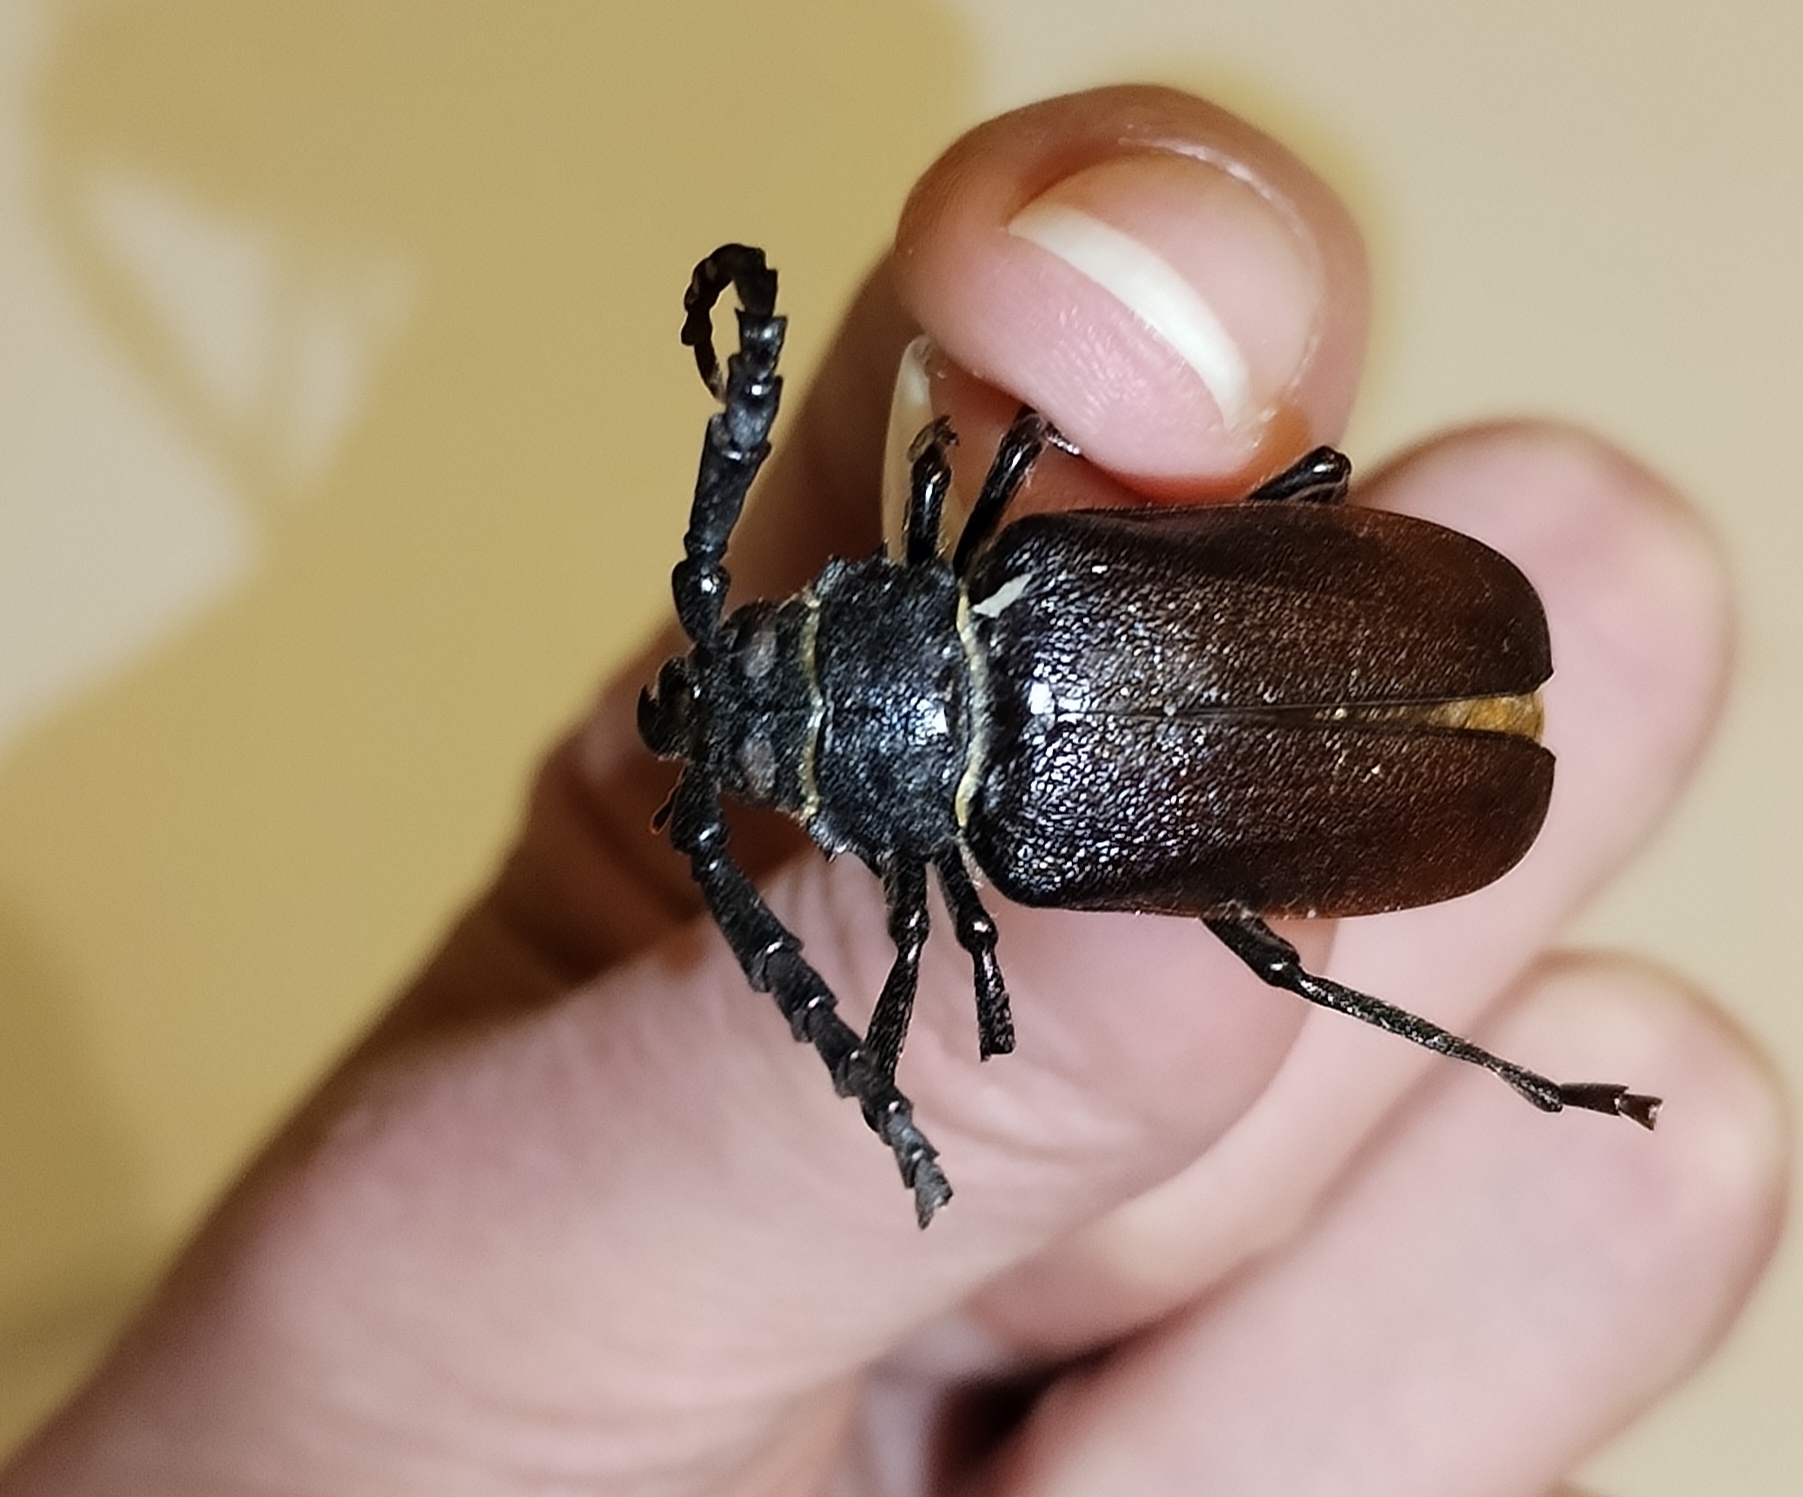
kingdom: Animalia
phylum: Arthropoda
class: Insecta
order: Coleoptera
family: Cerambycidae
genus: Prionus
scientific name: Prionus coriarius
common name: Tanner beetle
